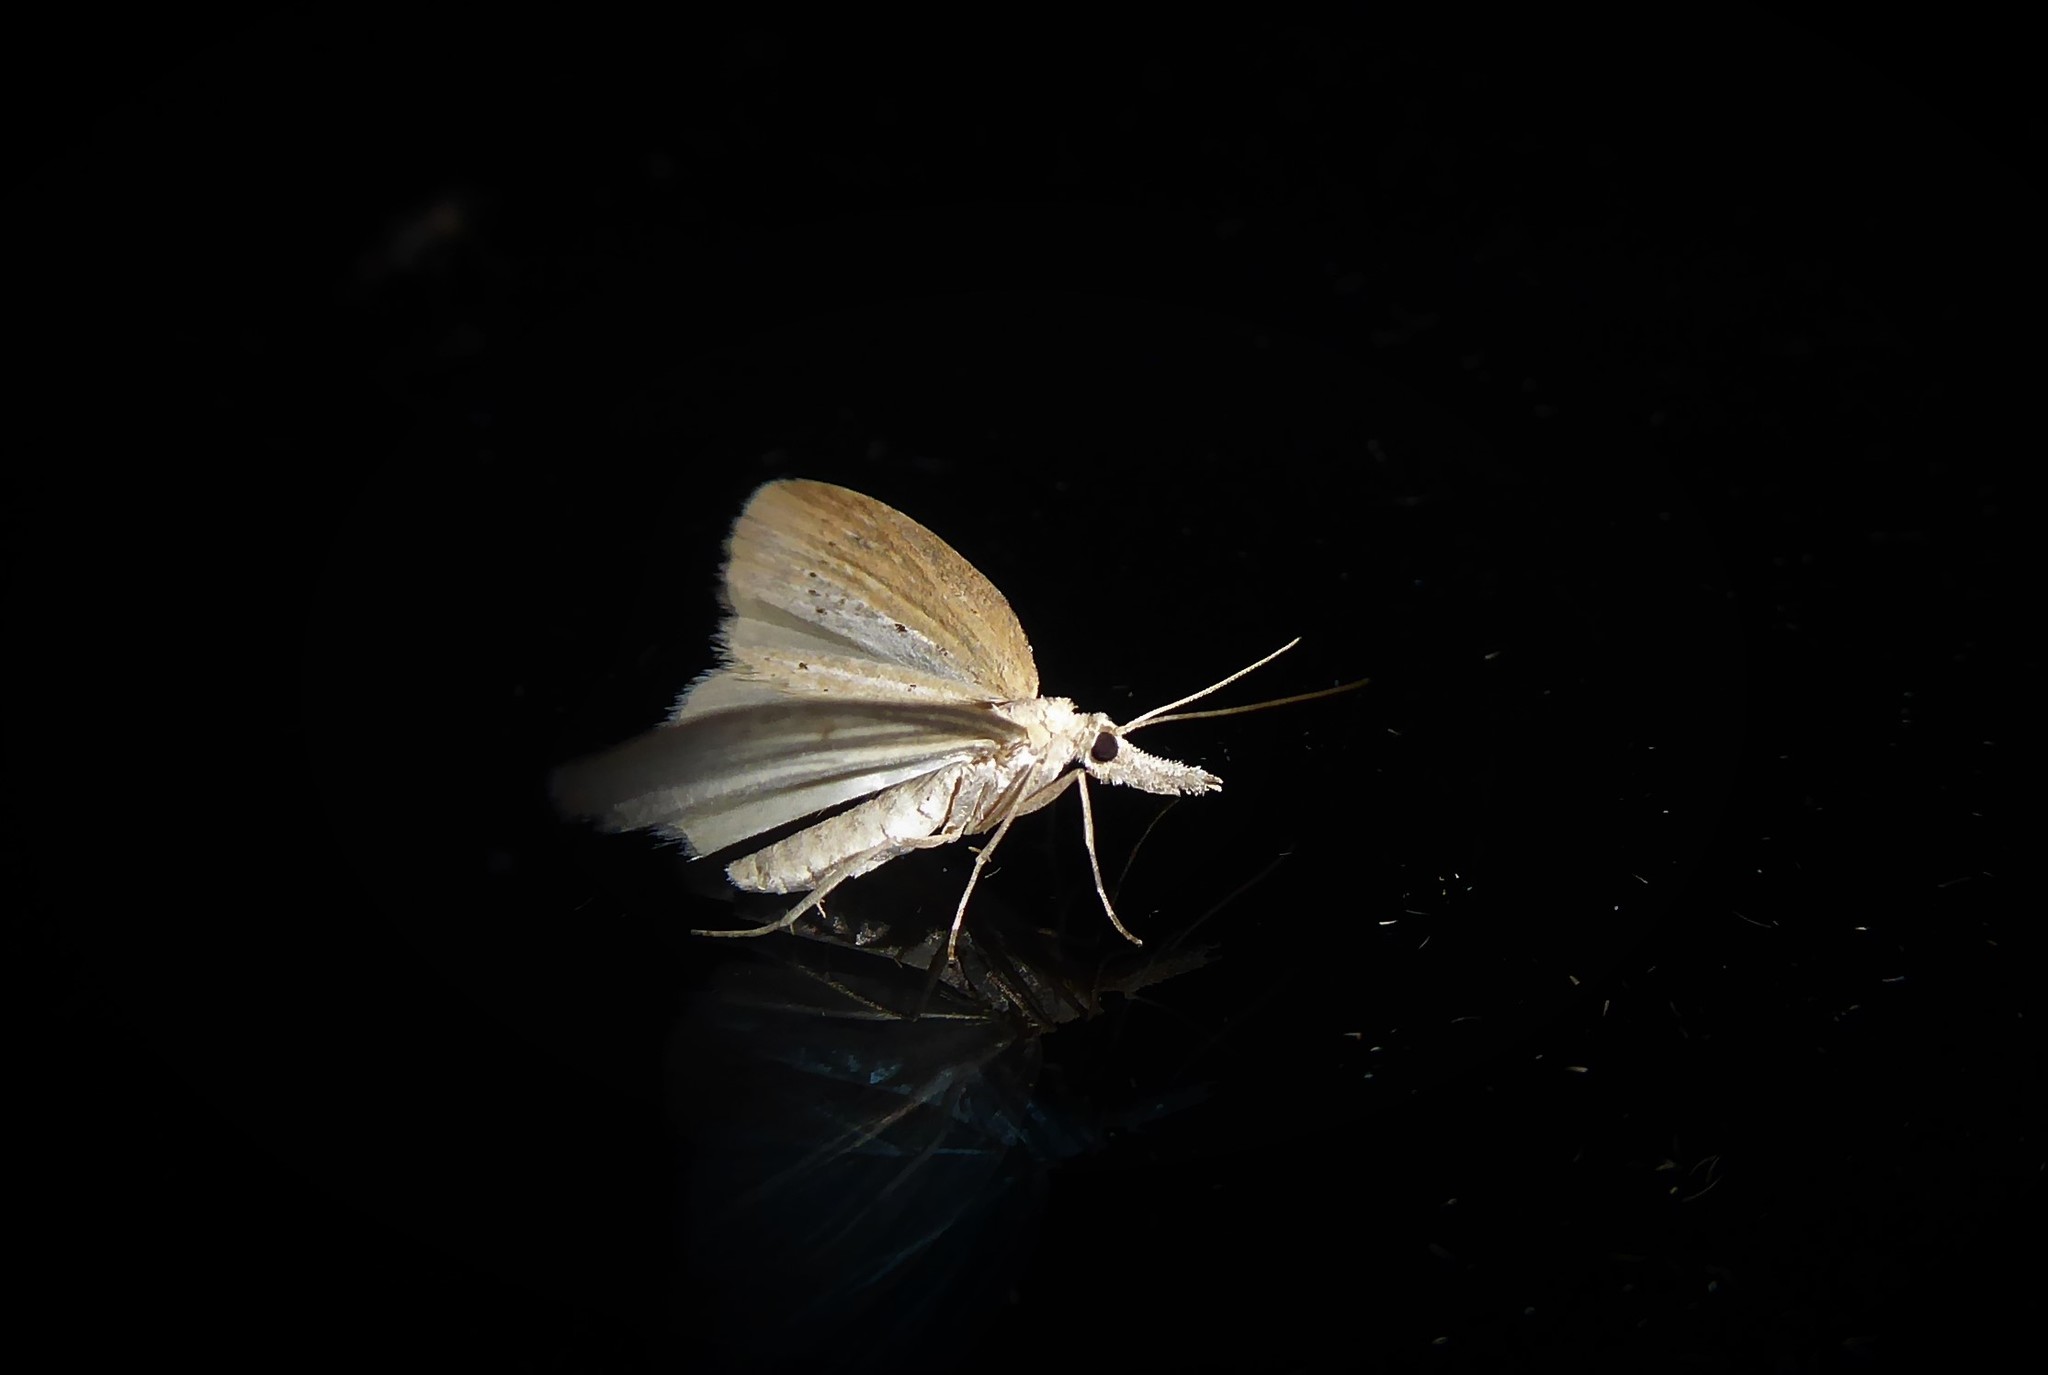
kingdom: Animalia
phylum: Arthropoda
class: Insecta
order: Lepidoptera
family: Geometridae
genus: Microdes
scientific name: Microdes epicryptis
